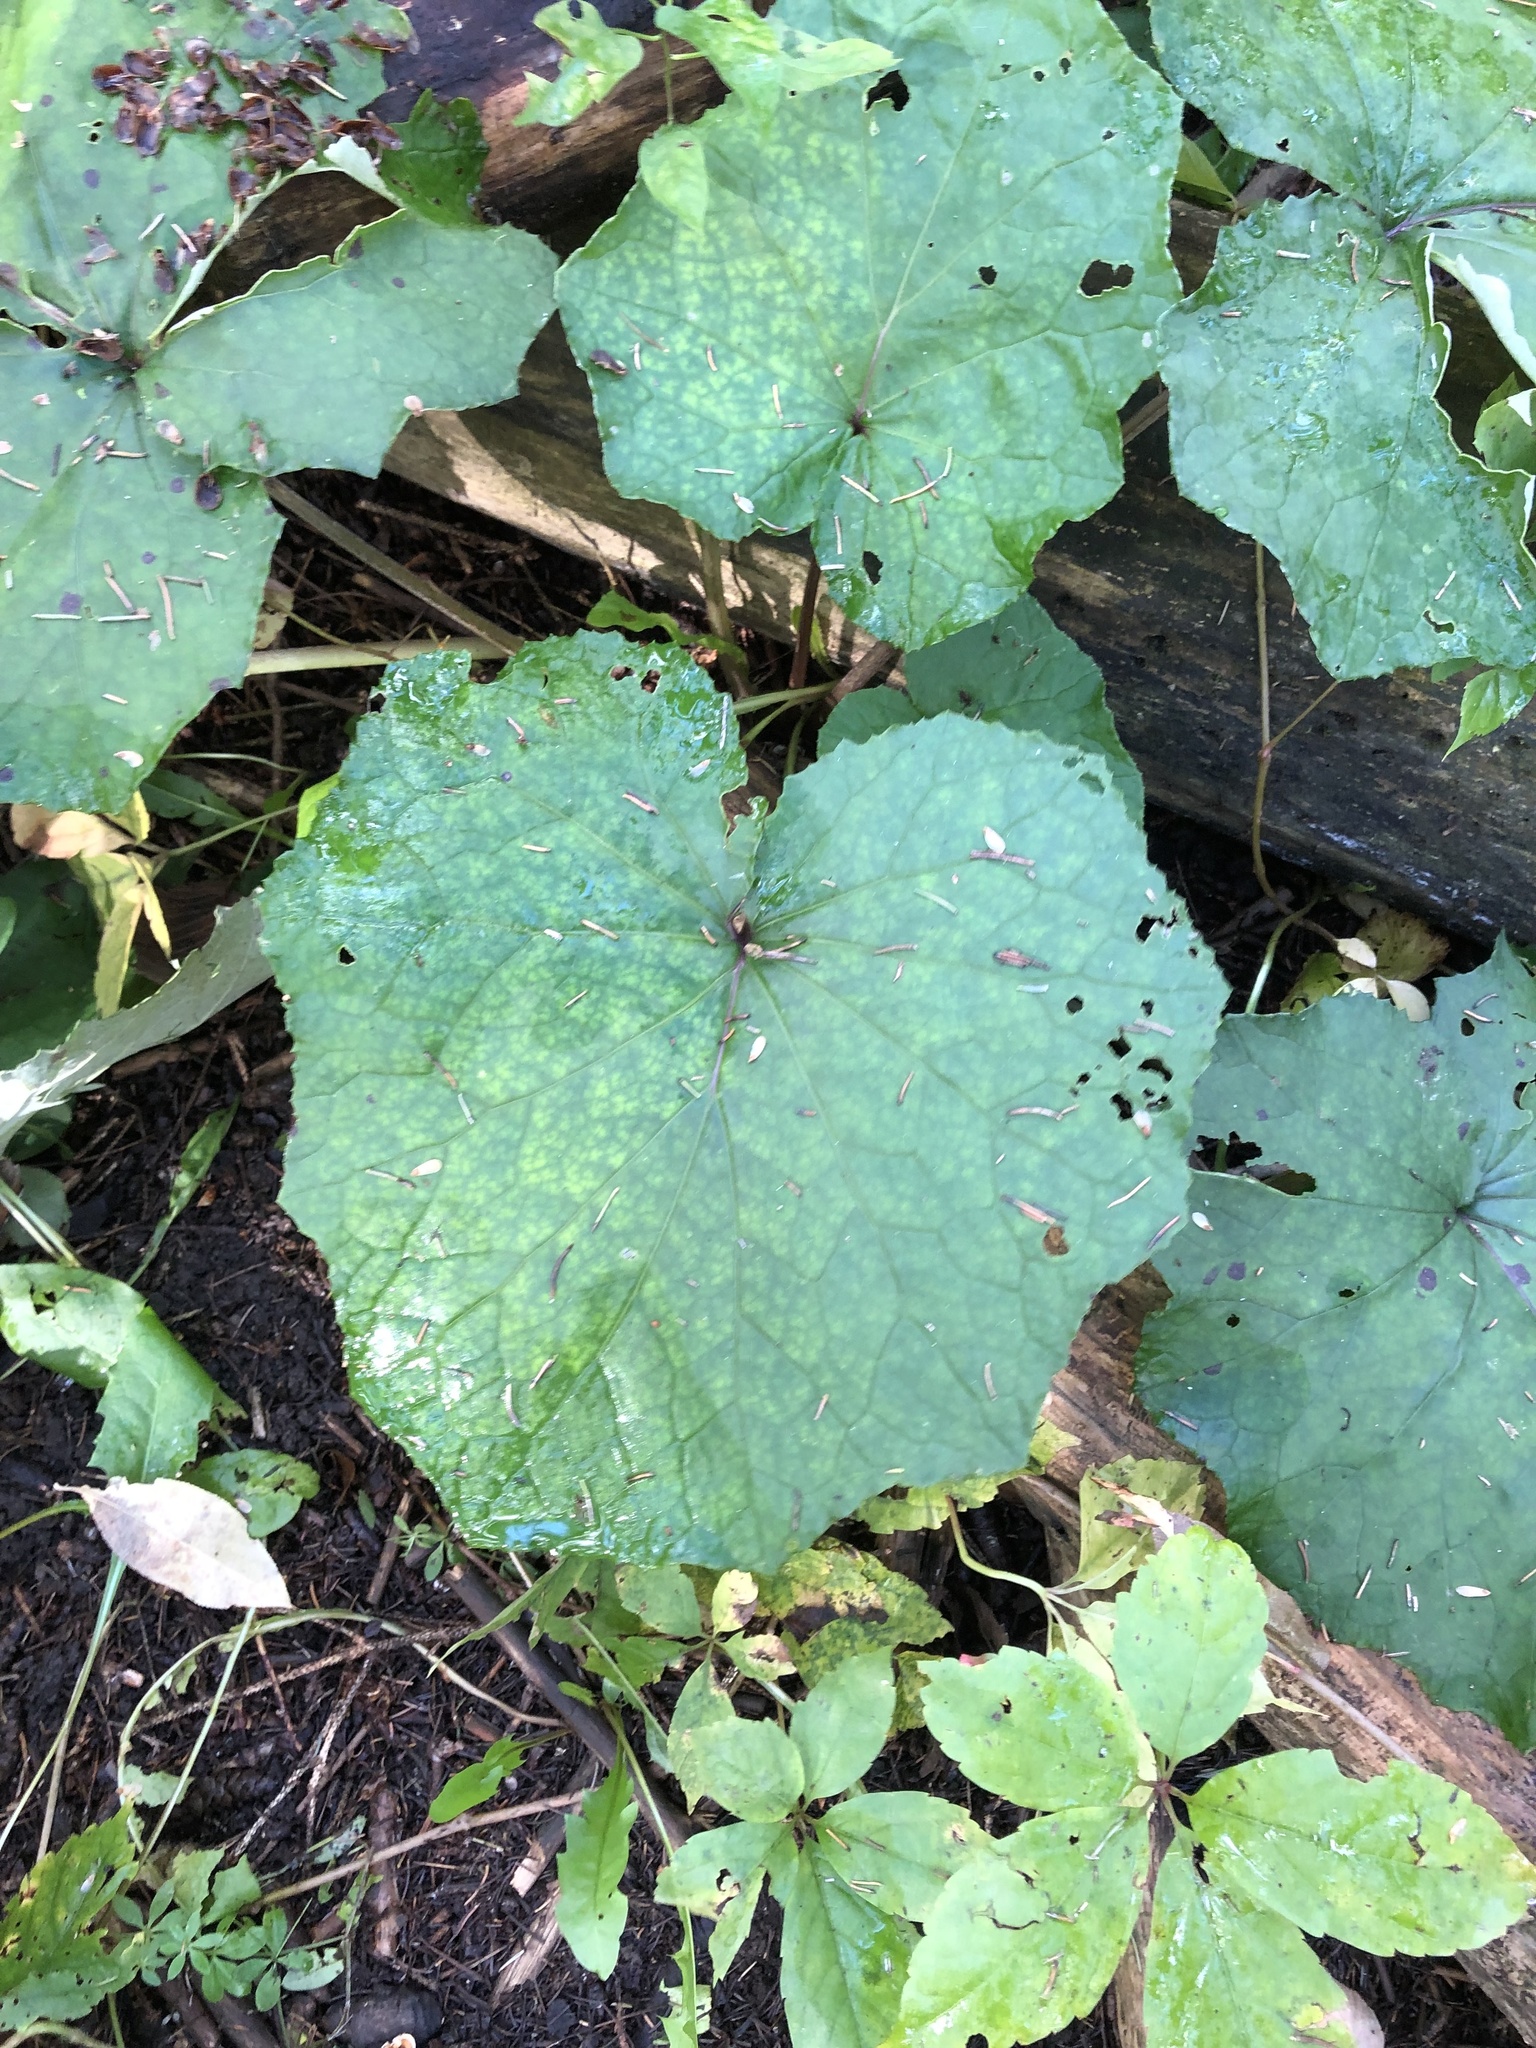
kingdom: Plantae
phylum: Tracheophyta
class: Magnoliopsida
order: Asterales
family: Asteraceae
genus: Tussilago
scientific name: Tussilago farfara
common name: Coltsfoot
